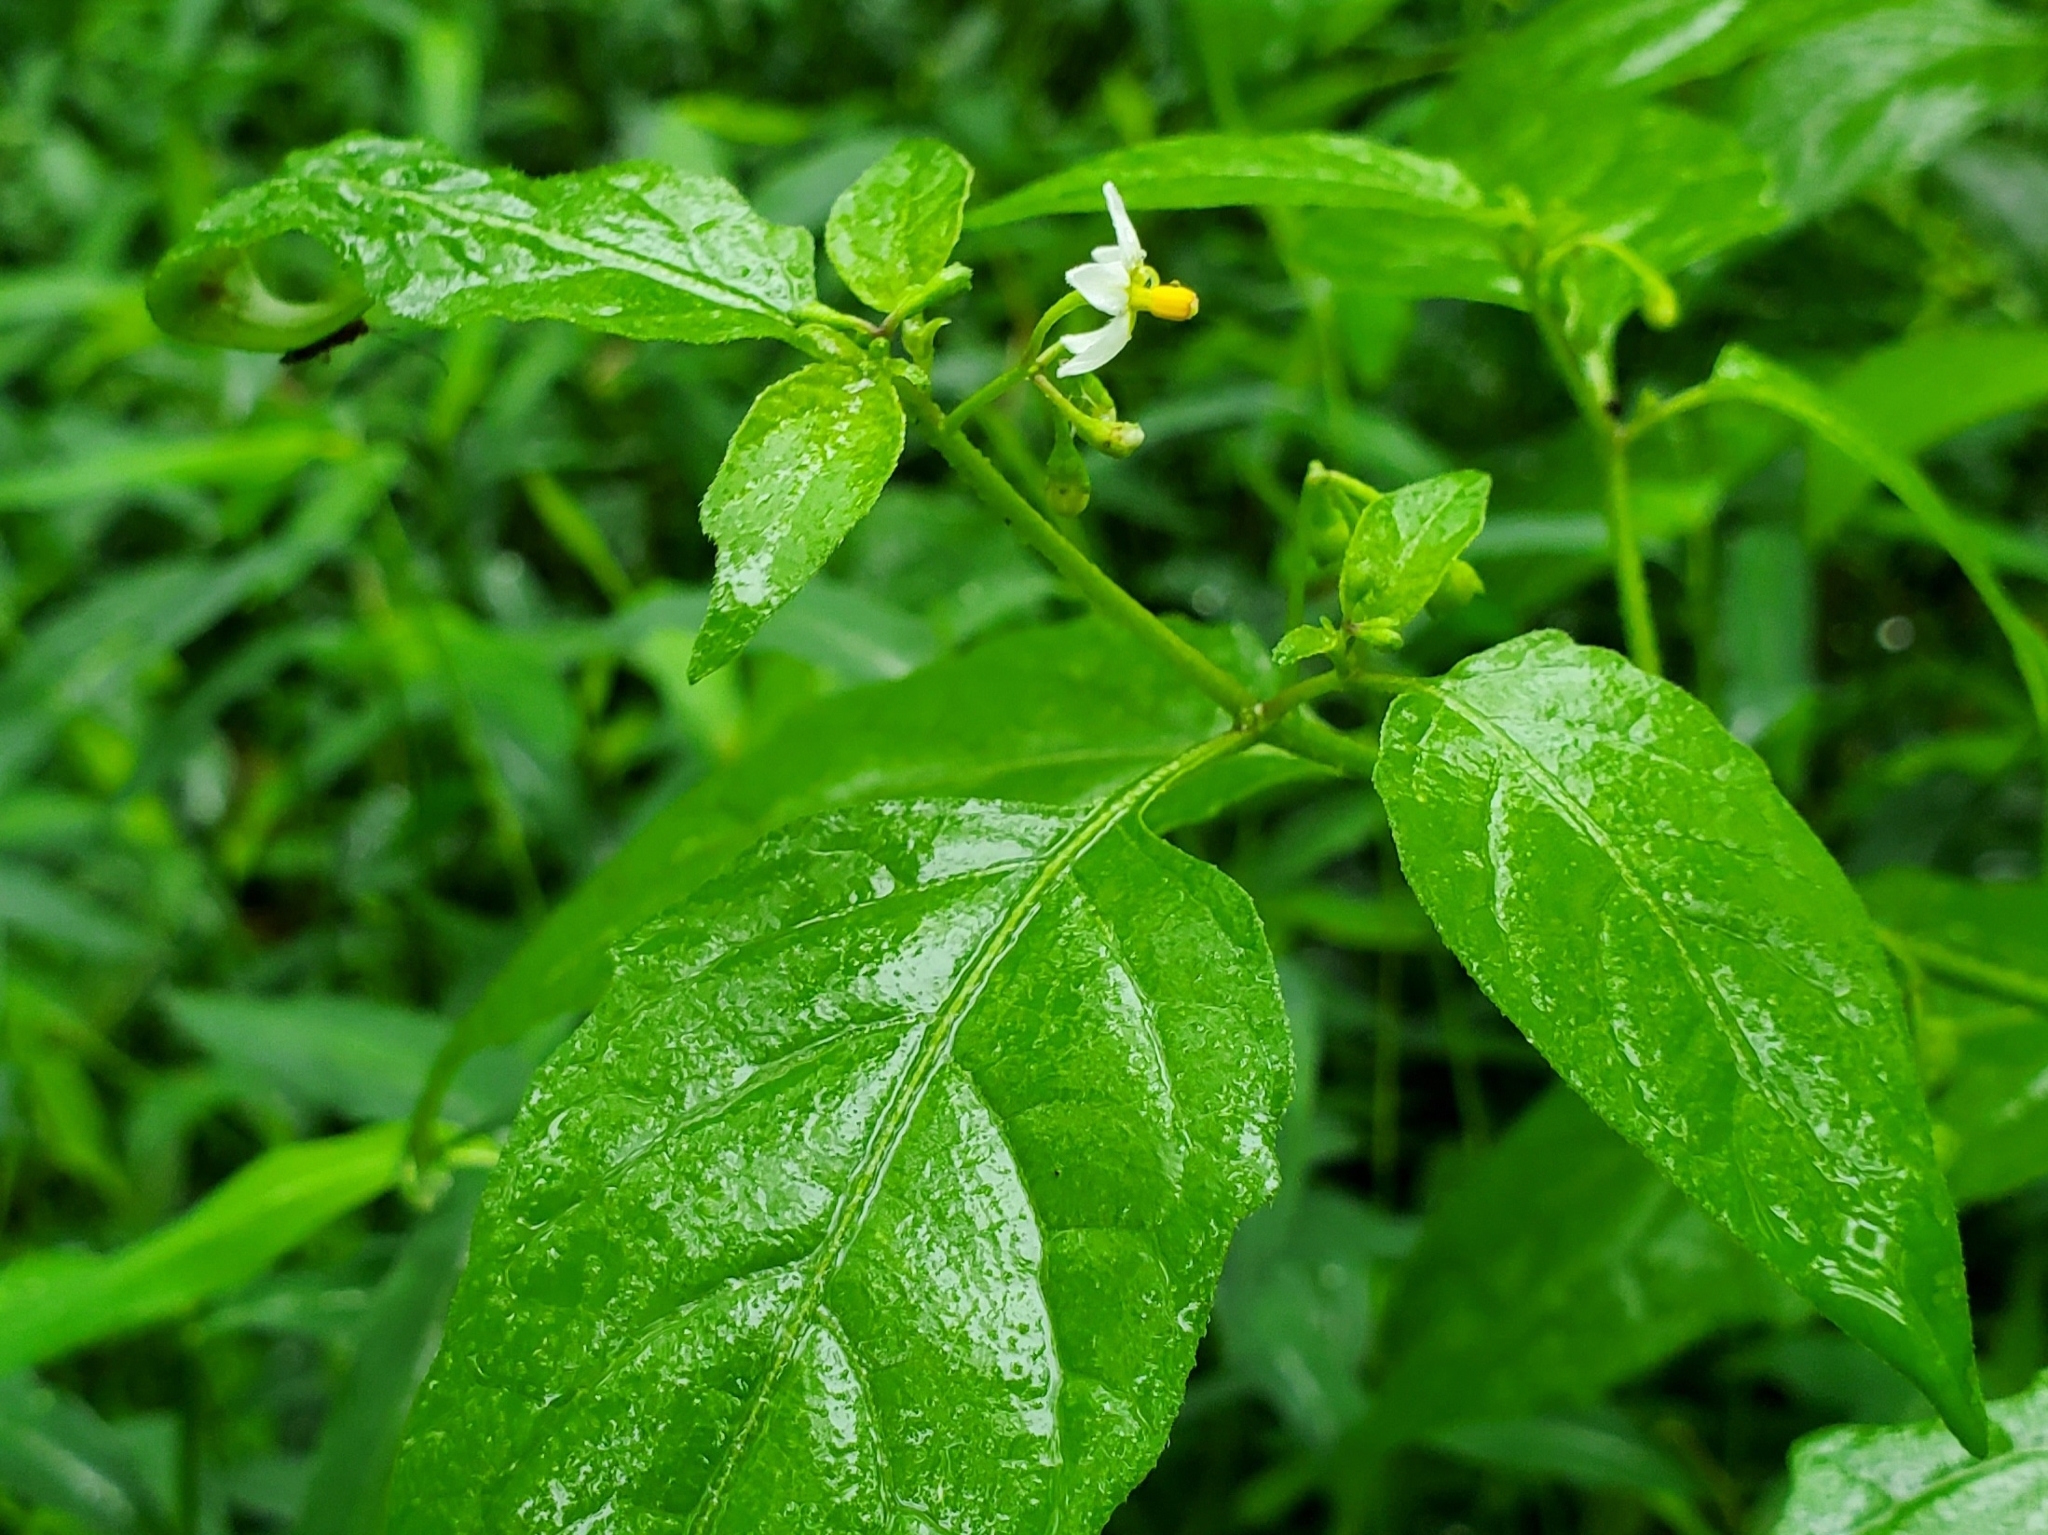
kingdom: Plantae
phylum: Tracheophyta
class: Magnoliopsida
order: Solanales
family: Solanaceae
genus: Solanum
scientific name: Solanum emulans
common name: Eastern black nightshade
